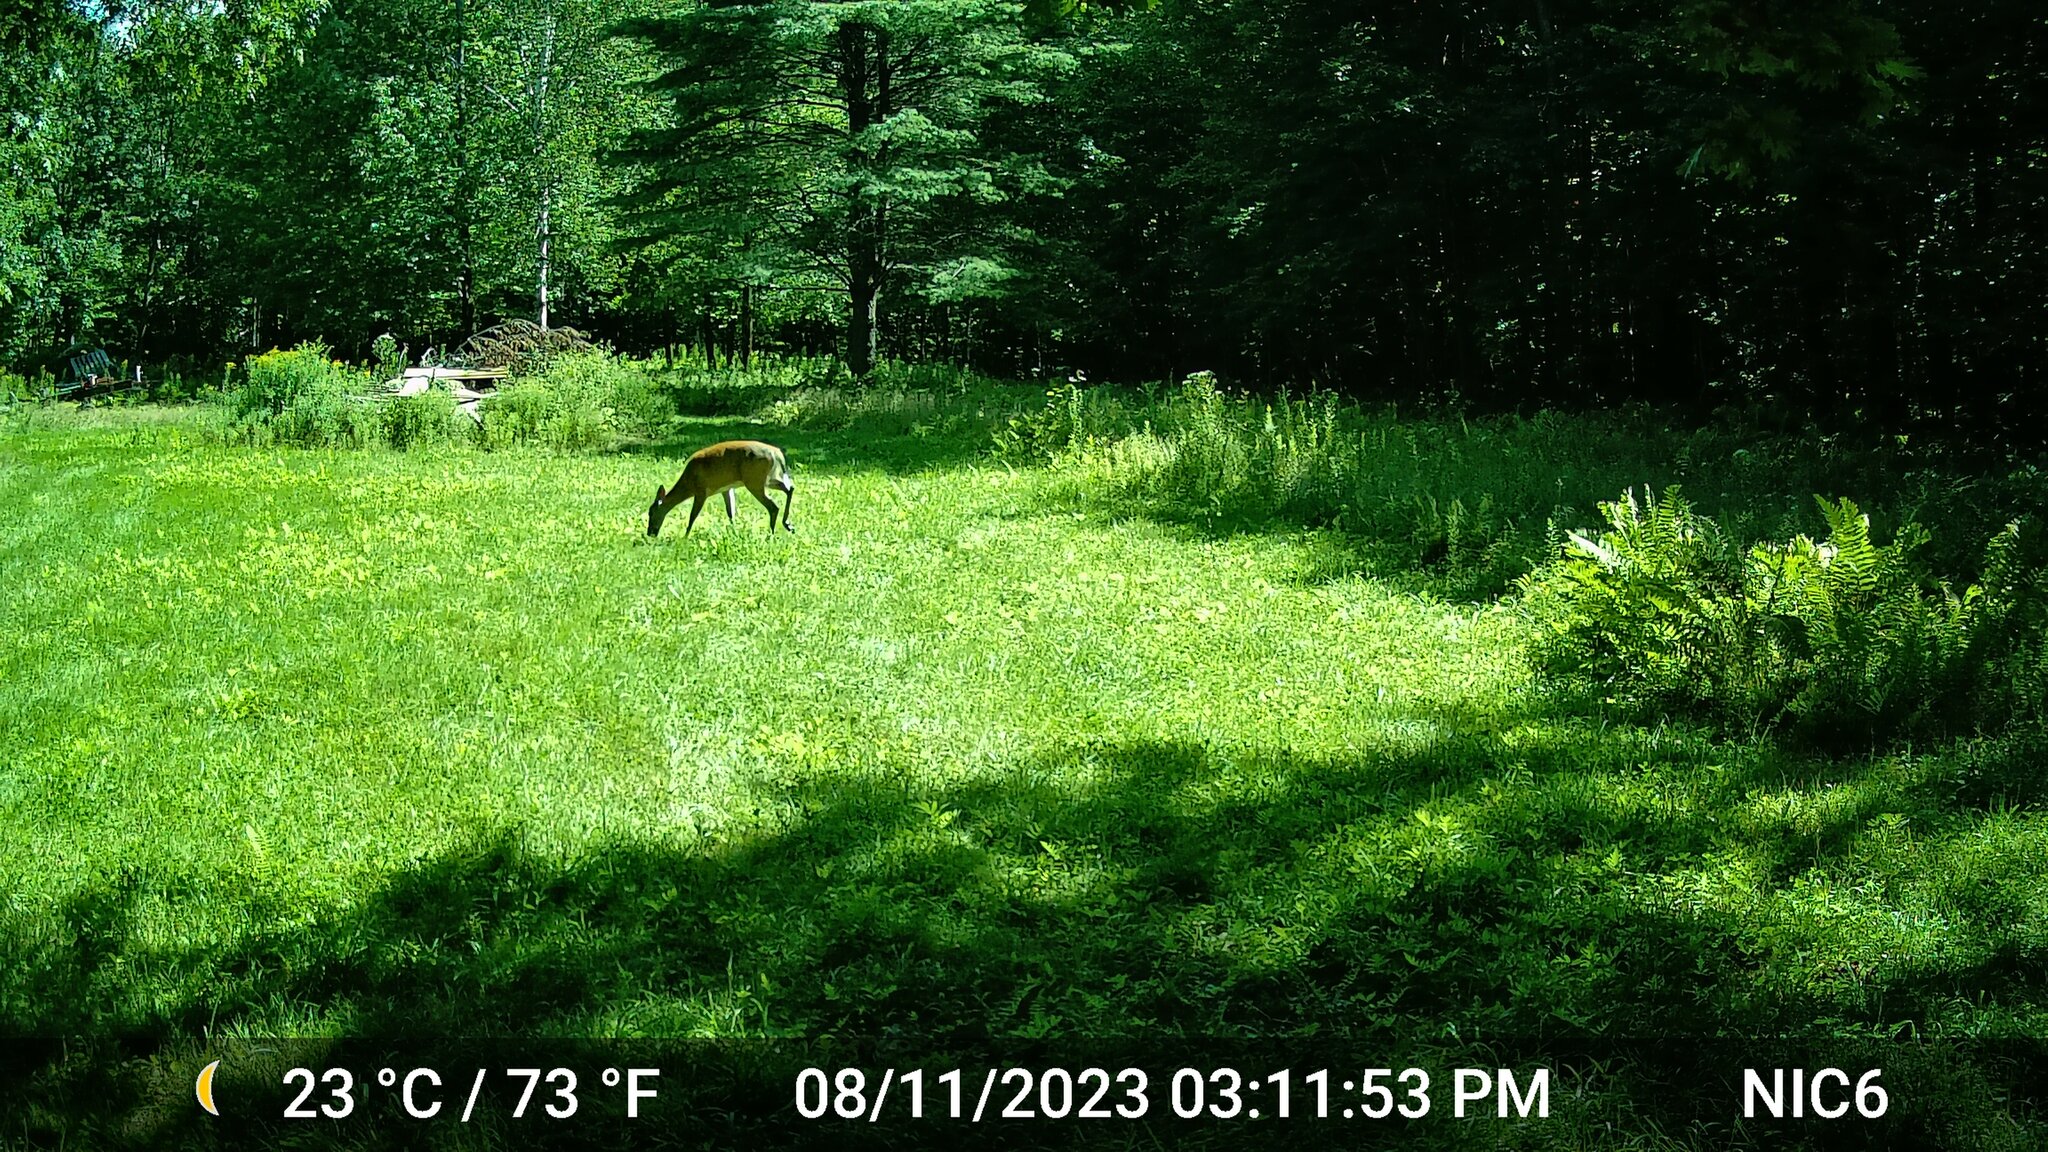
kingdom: Animalia
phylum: Chordata
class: Mammalia
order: Artiodactyla
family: Cervidae
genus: Odocoileus
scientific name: Odocoileus virginianus
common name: White-tailed deer
